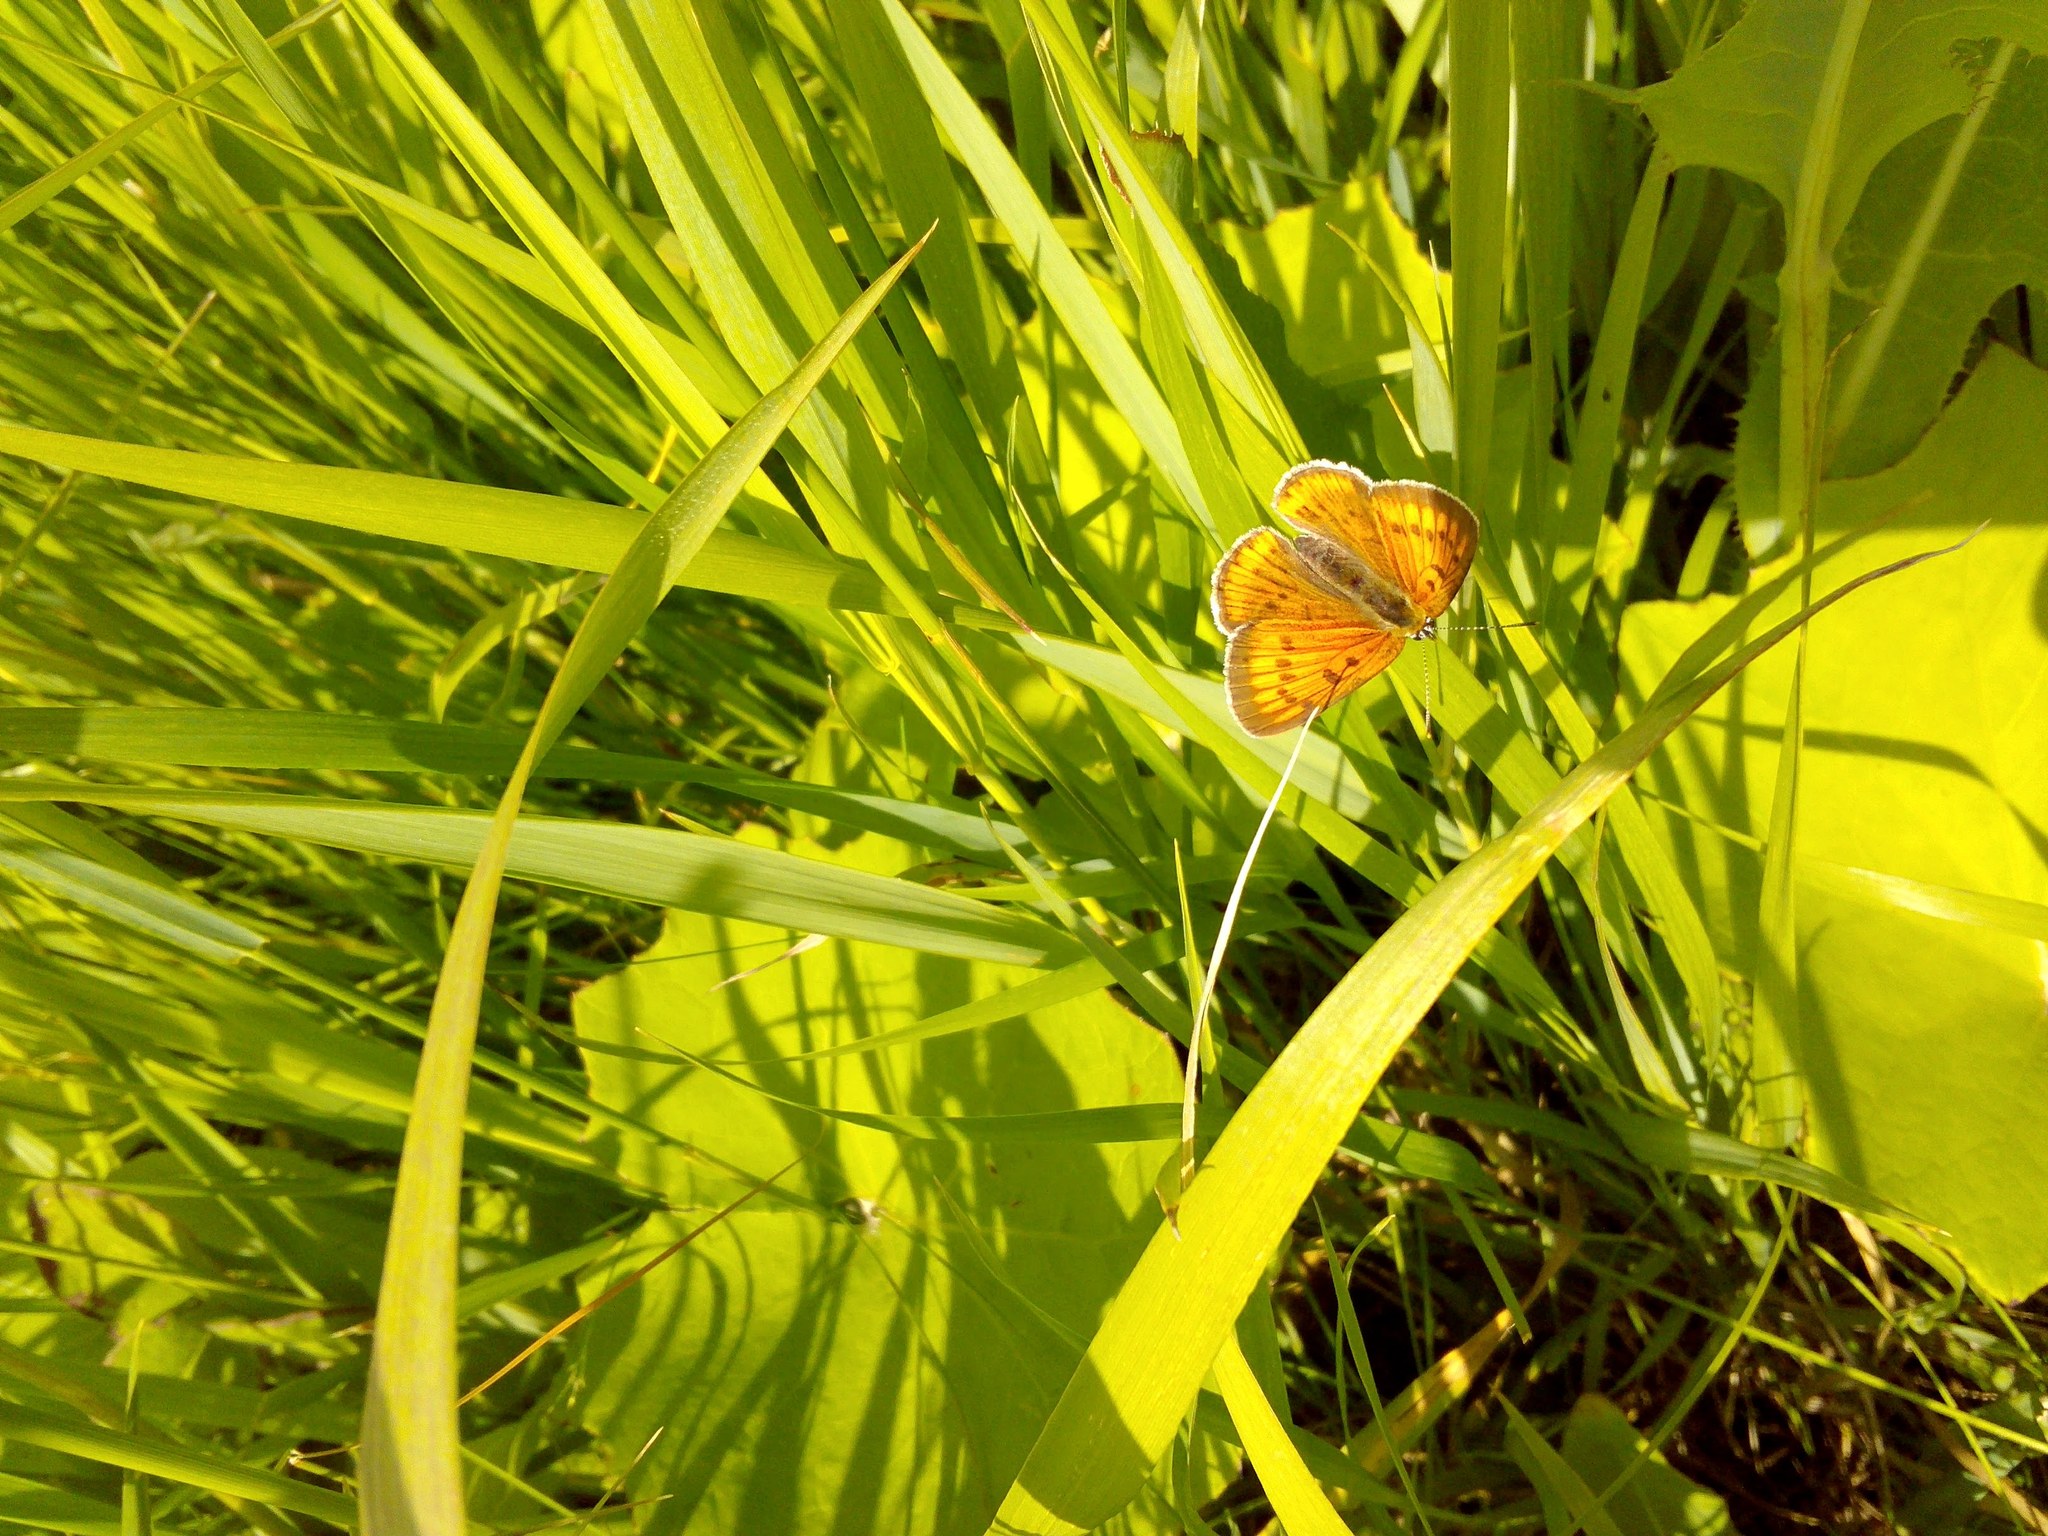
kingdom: Animalia
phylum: Arthropoda
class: Insecta
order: Lepidoptera
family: Lycaenidae
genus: Lycaena
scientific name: Lycaena dispar
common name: Large copper
